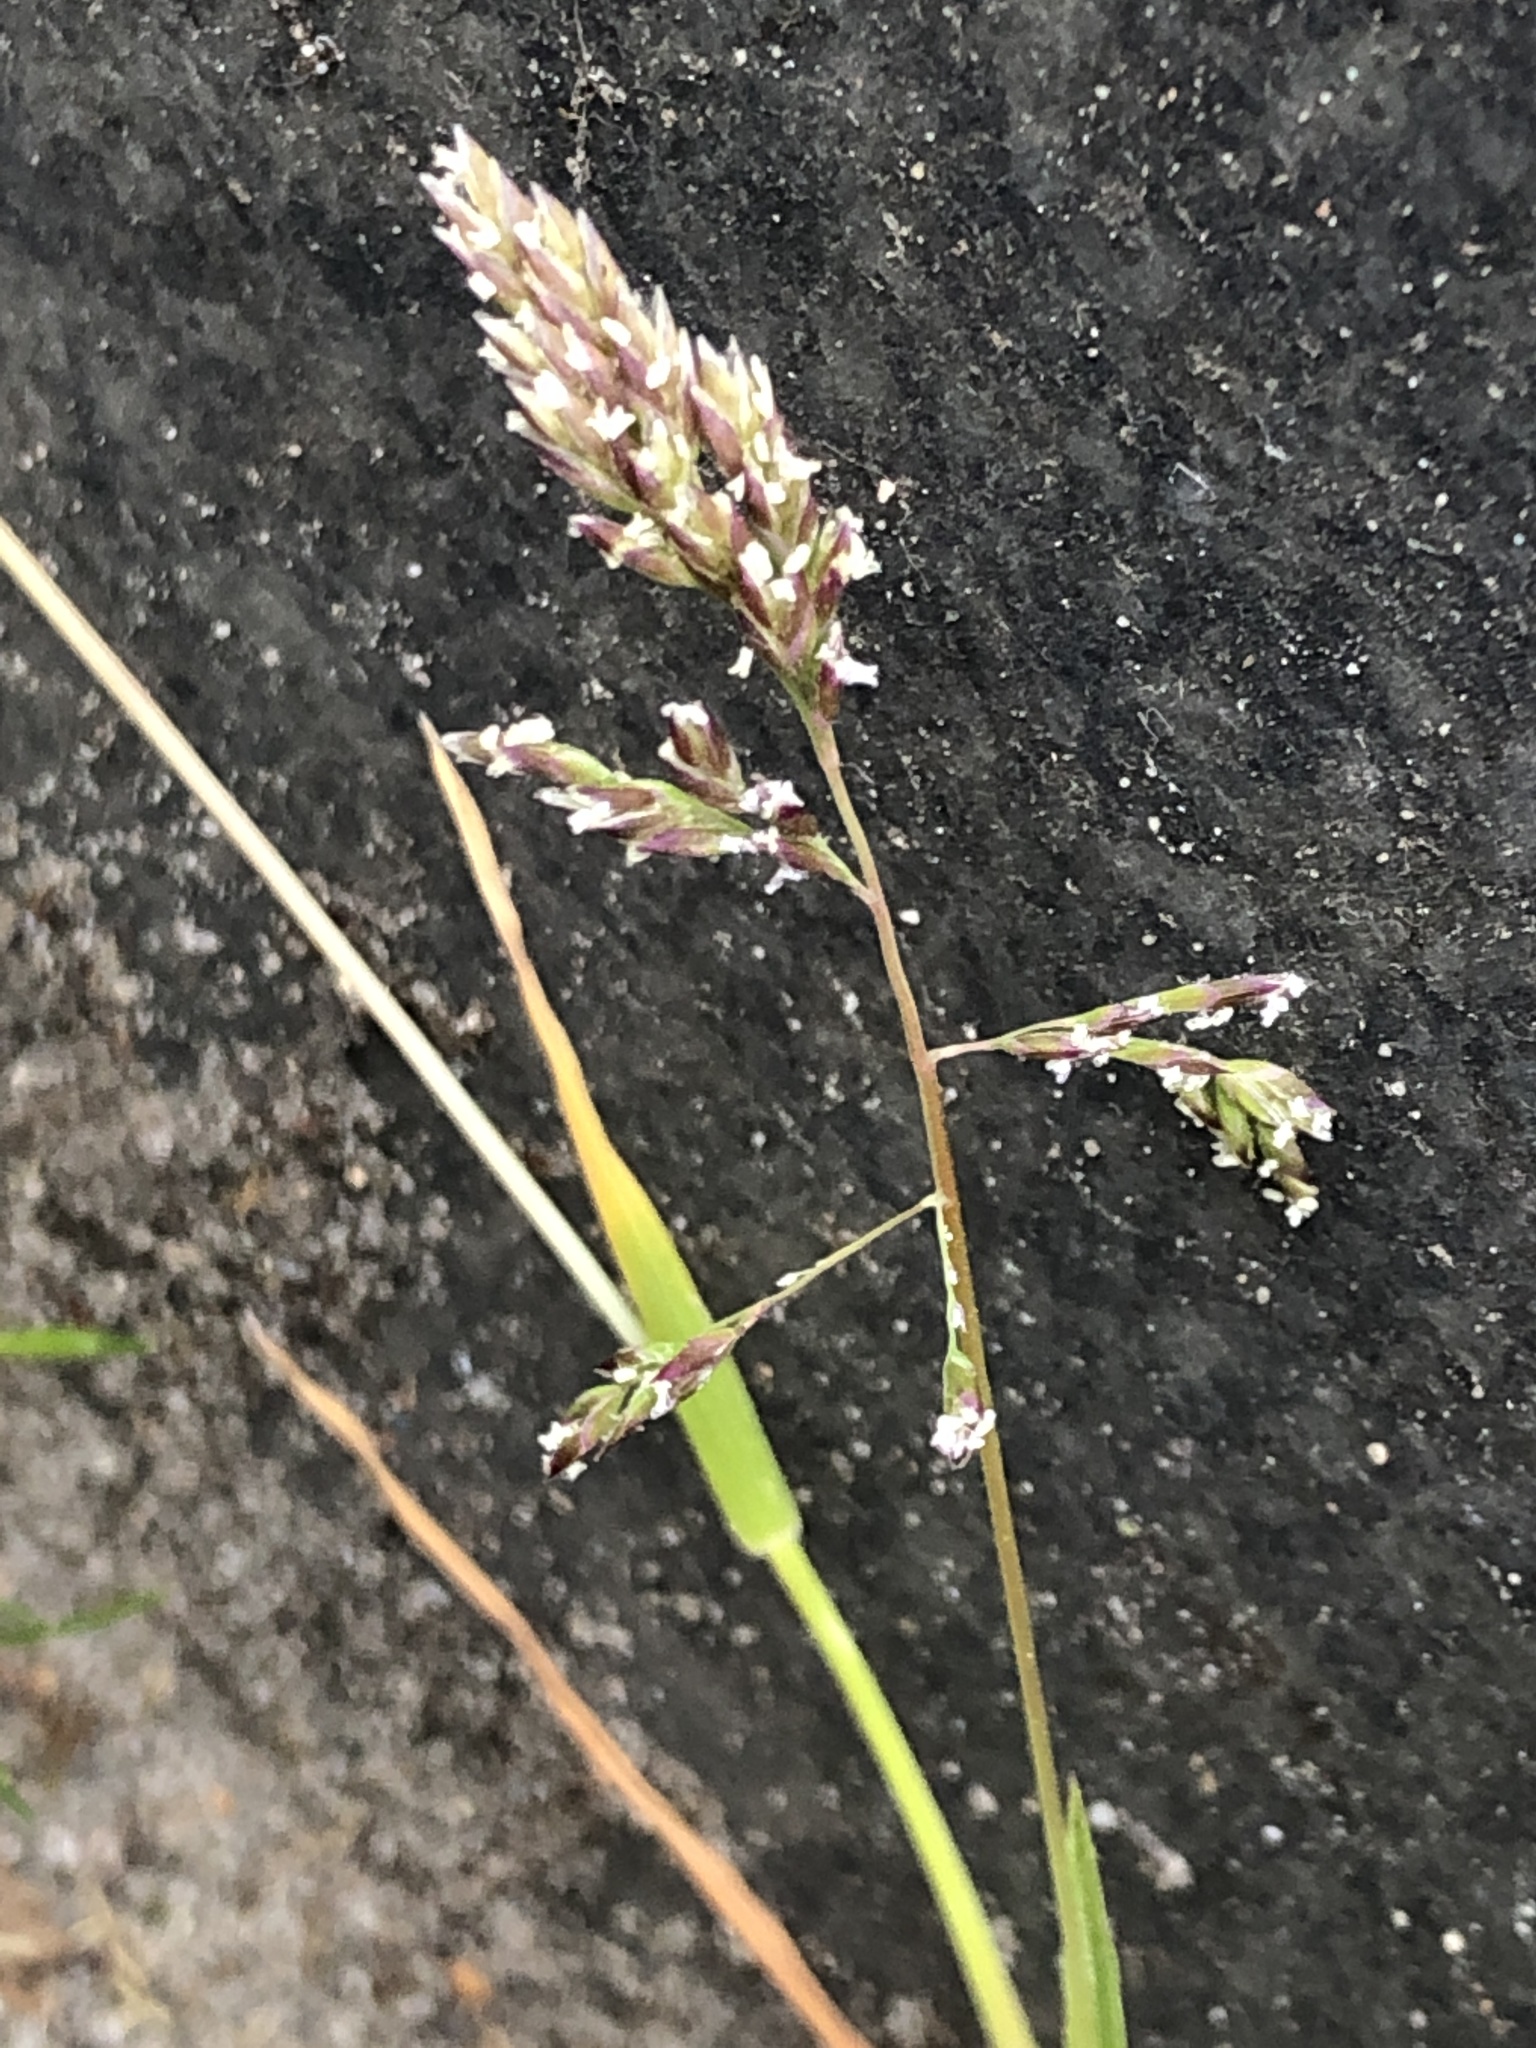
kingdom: Plantae
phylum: Tracheophyta
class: Liliopsida
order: Poales
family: Poaceae
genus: Poa
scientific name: Poa annua
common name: Annual bluegrass
